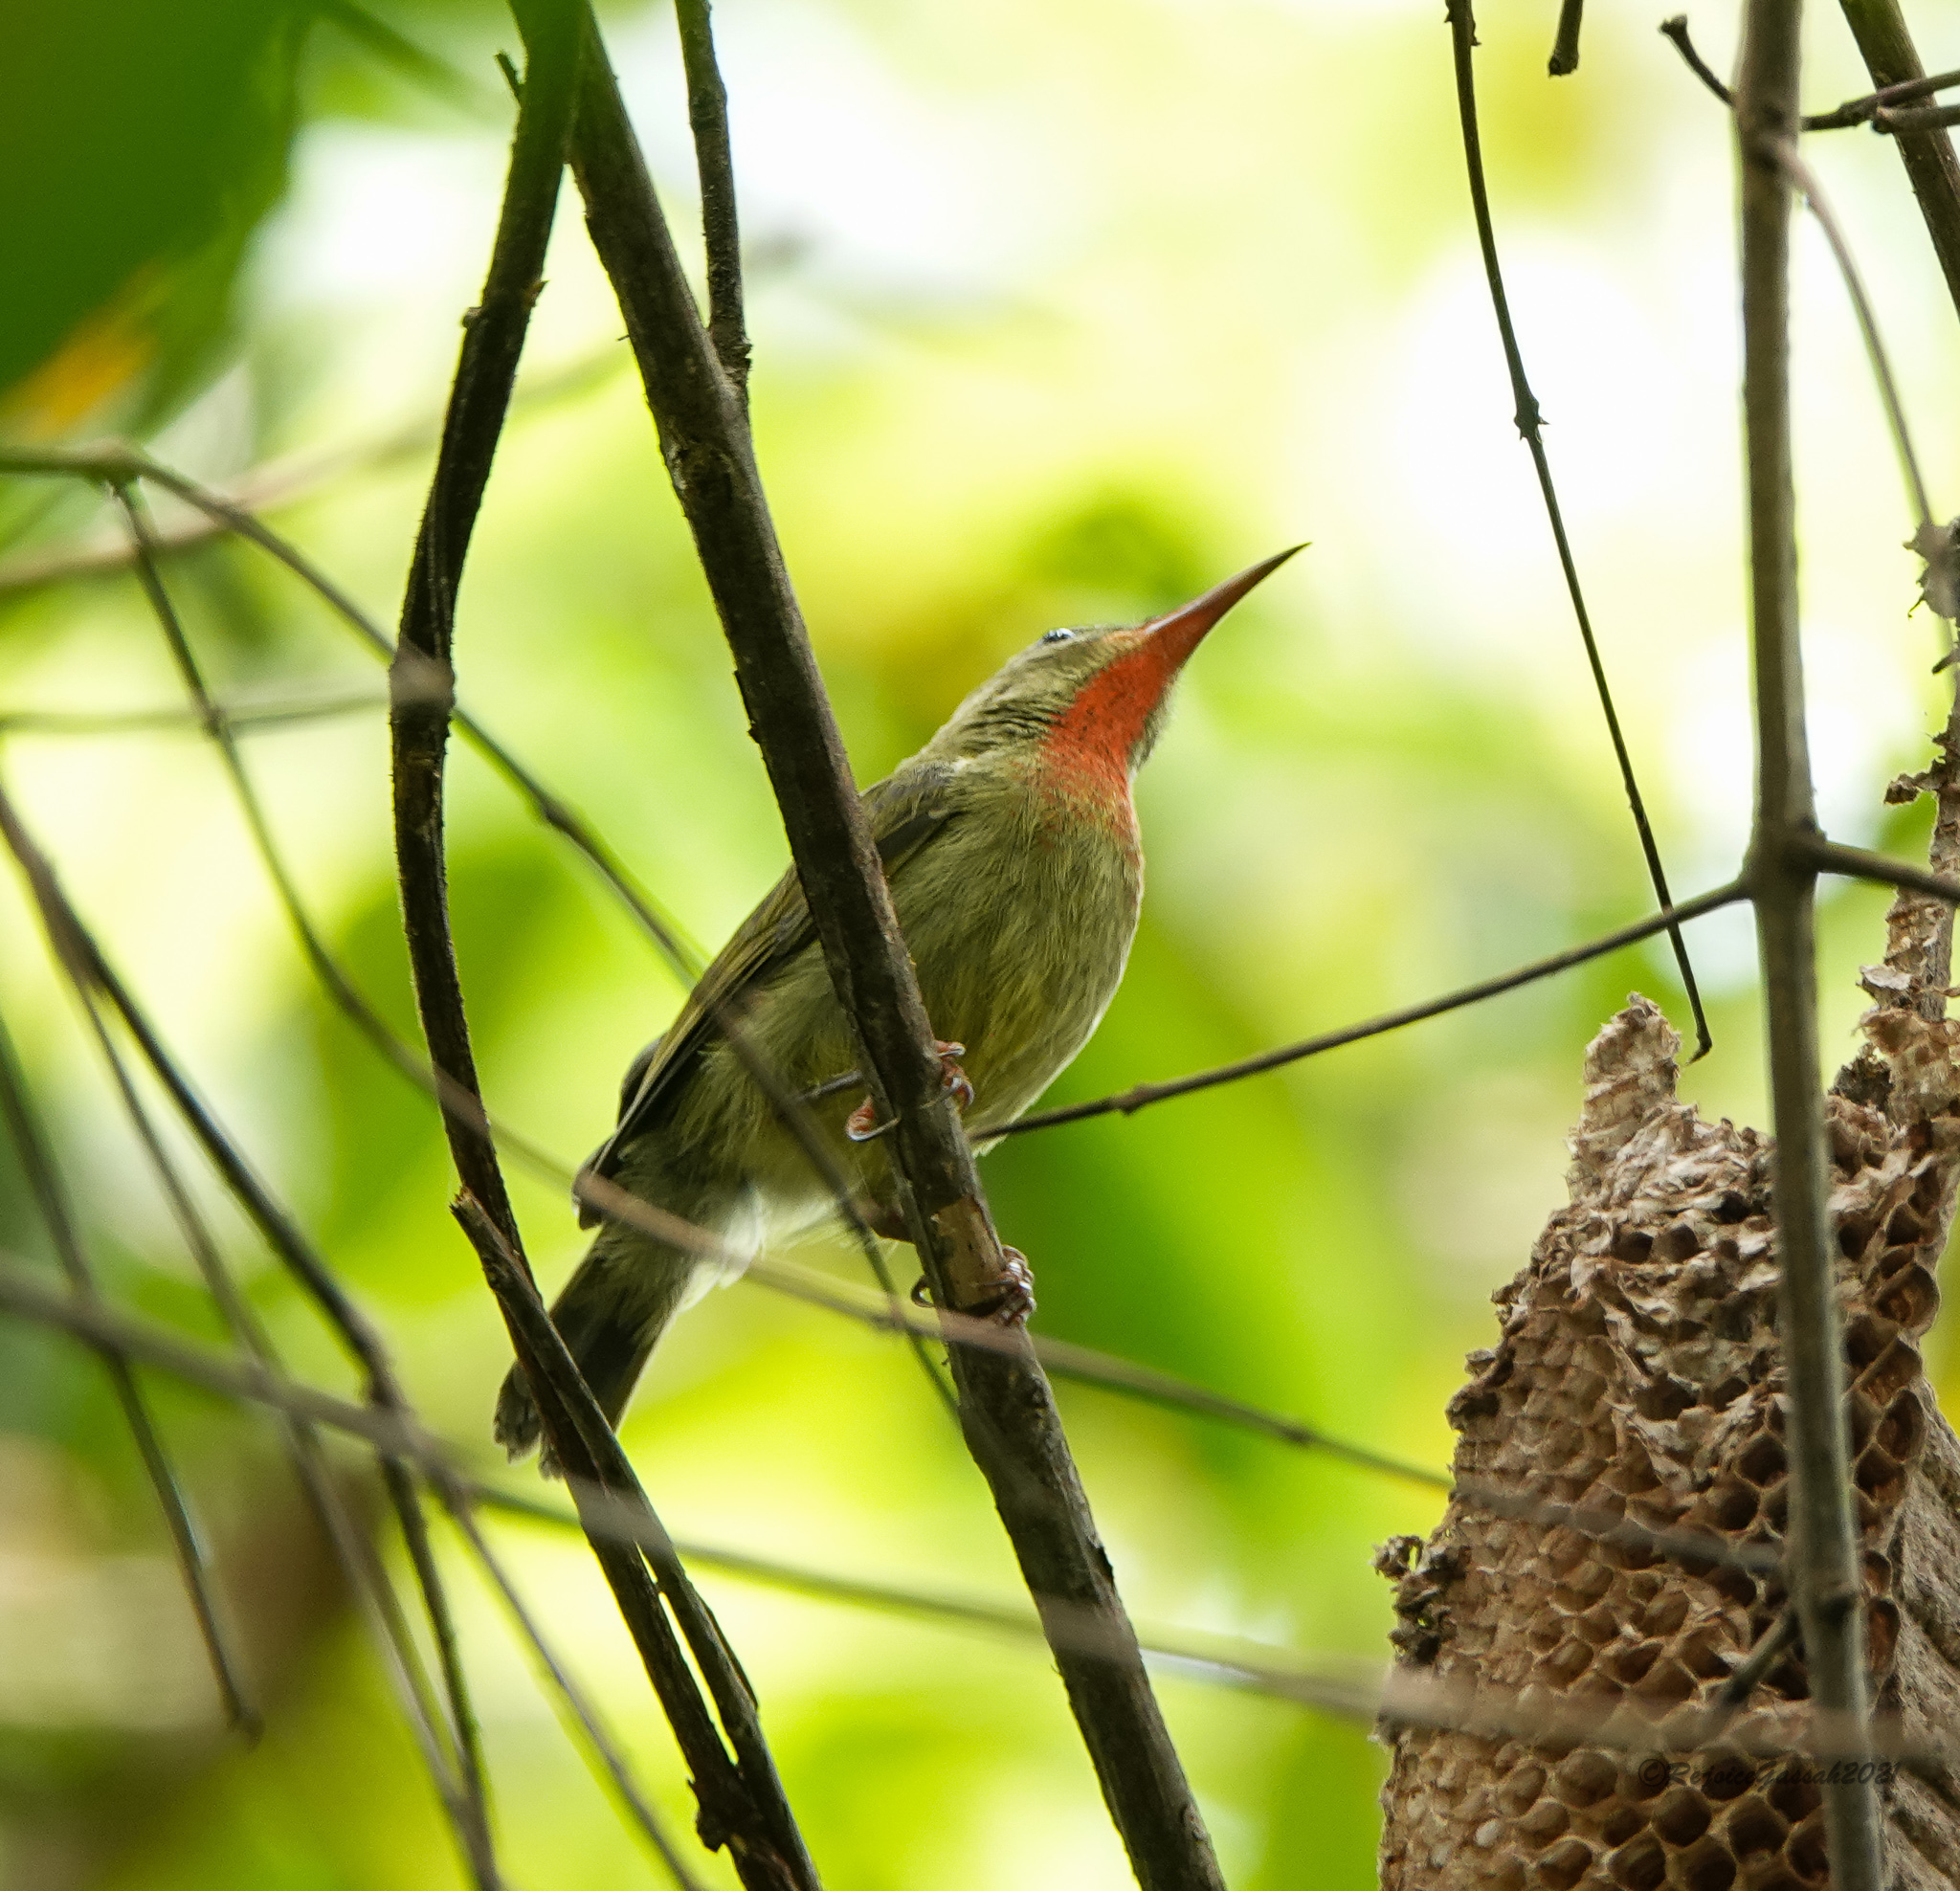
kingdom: Animalia
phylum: Chordata
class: Aves
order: Passeriformes
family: Nectariniidae
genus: Aethopyga
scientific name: Aethopyga siparaja
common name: Crimson sunbird
